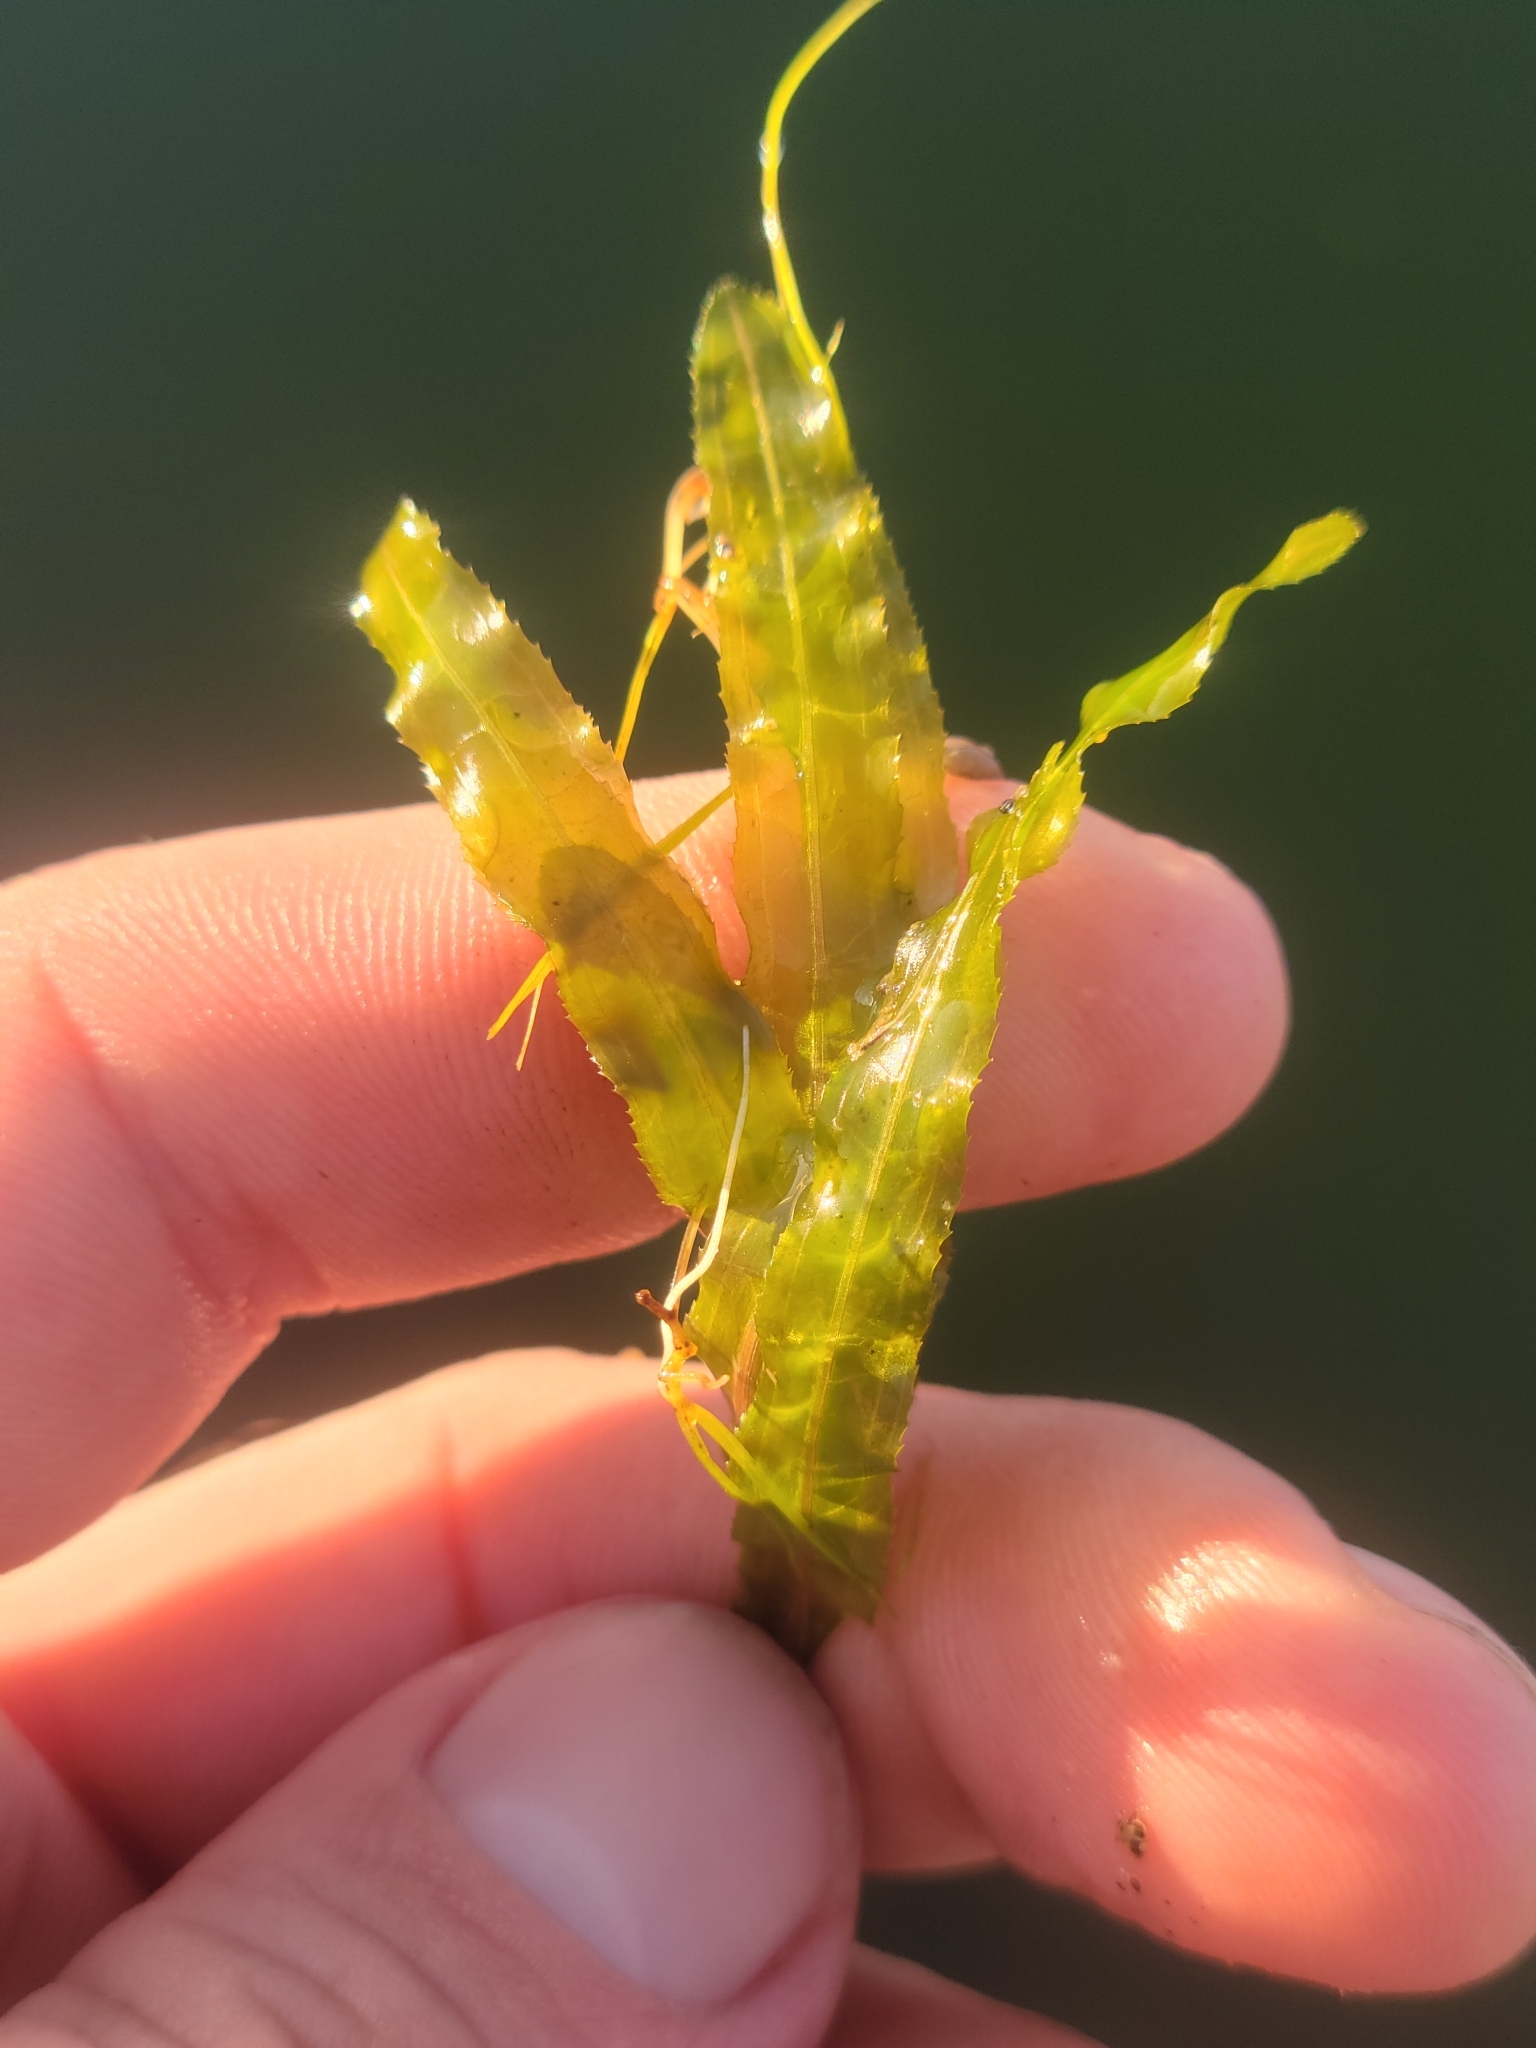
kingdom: Plantae
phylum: Tracheophyta
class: Liliopsida
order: Alismatales
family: Potamogetonaceae
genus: Potamogeton
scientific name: Potamogeton crispus
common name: Curled pondweed
